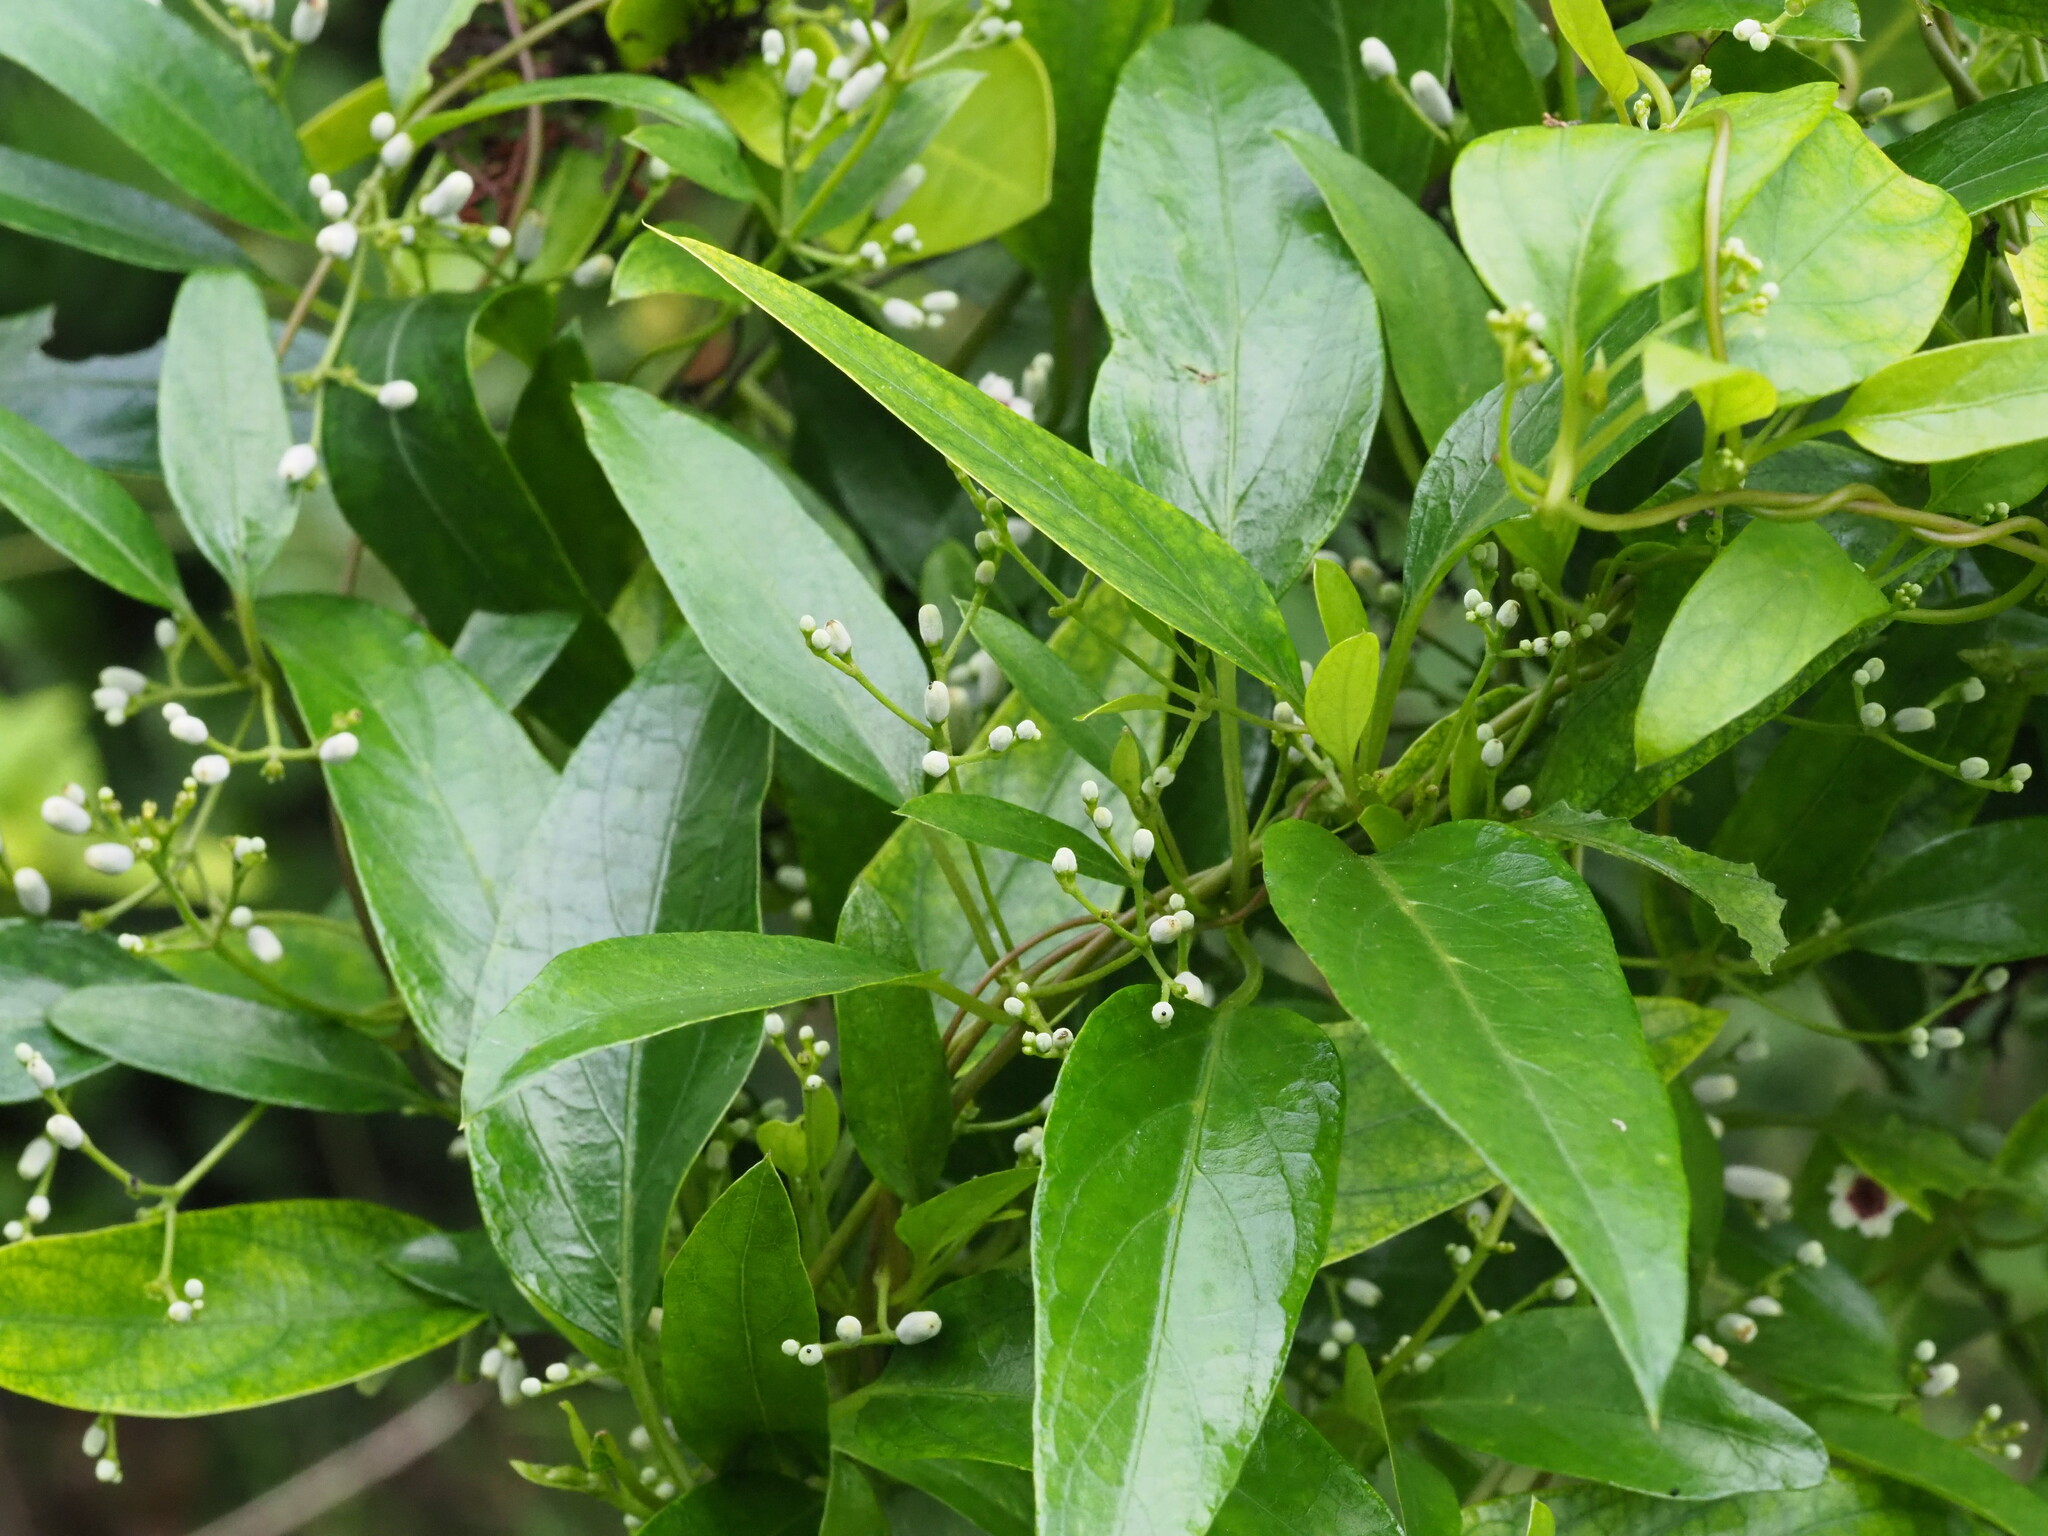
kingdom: Plantae
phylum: Tracheophyta
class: Magnoliopsida
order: Gentianales
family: Rubiaceae
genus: Paederia
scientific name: Paederia foetida
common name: Stinkvine
